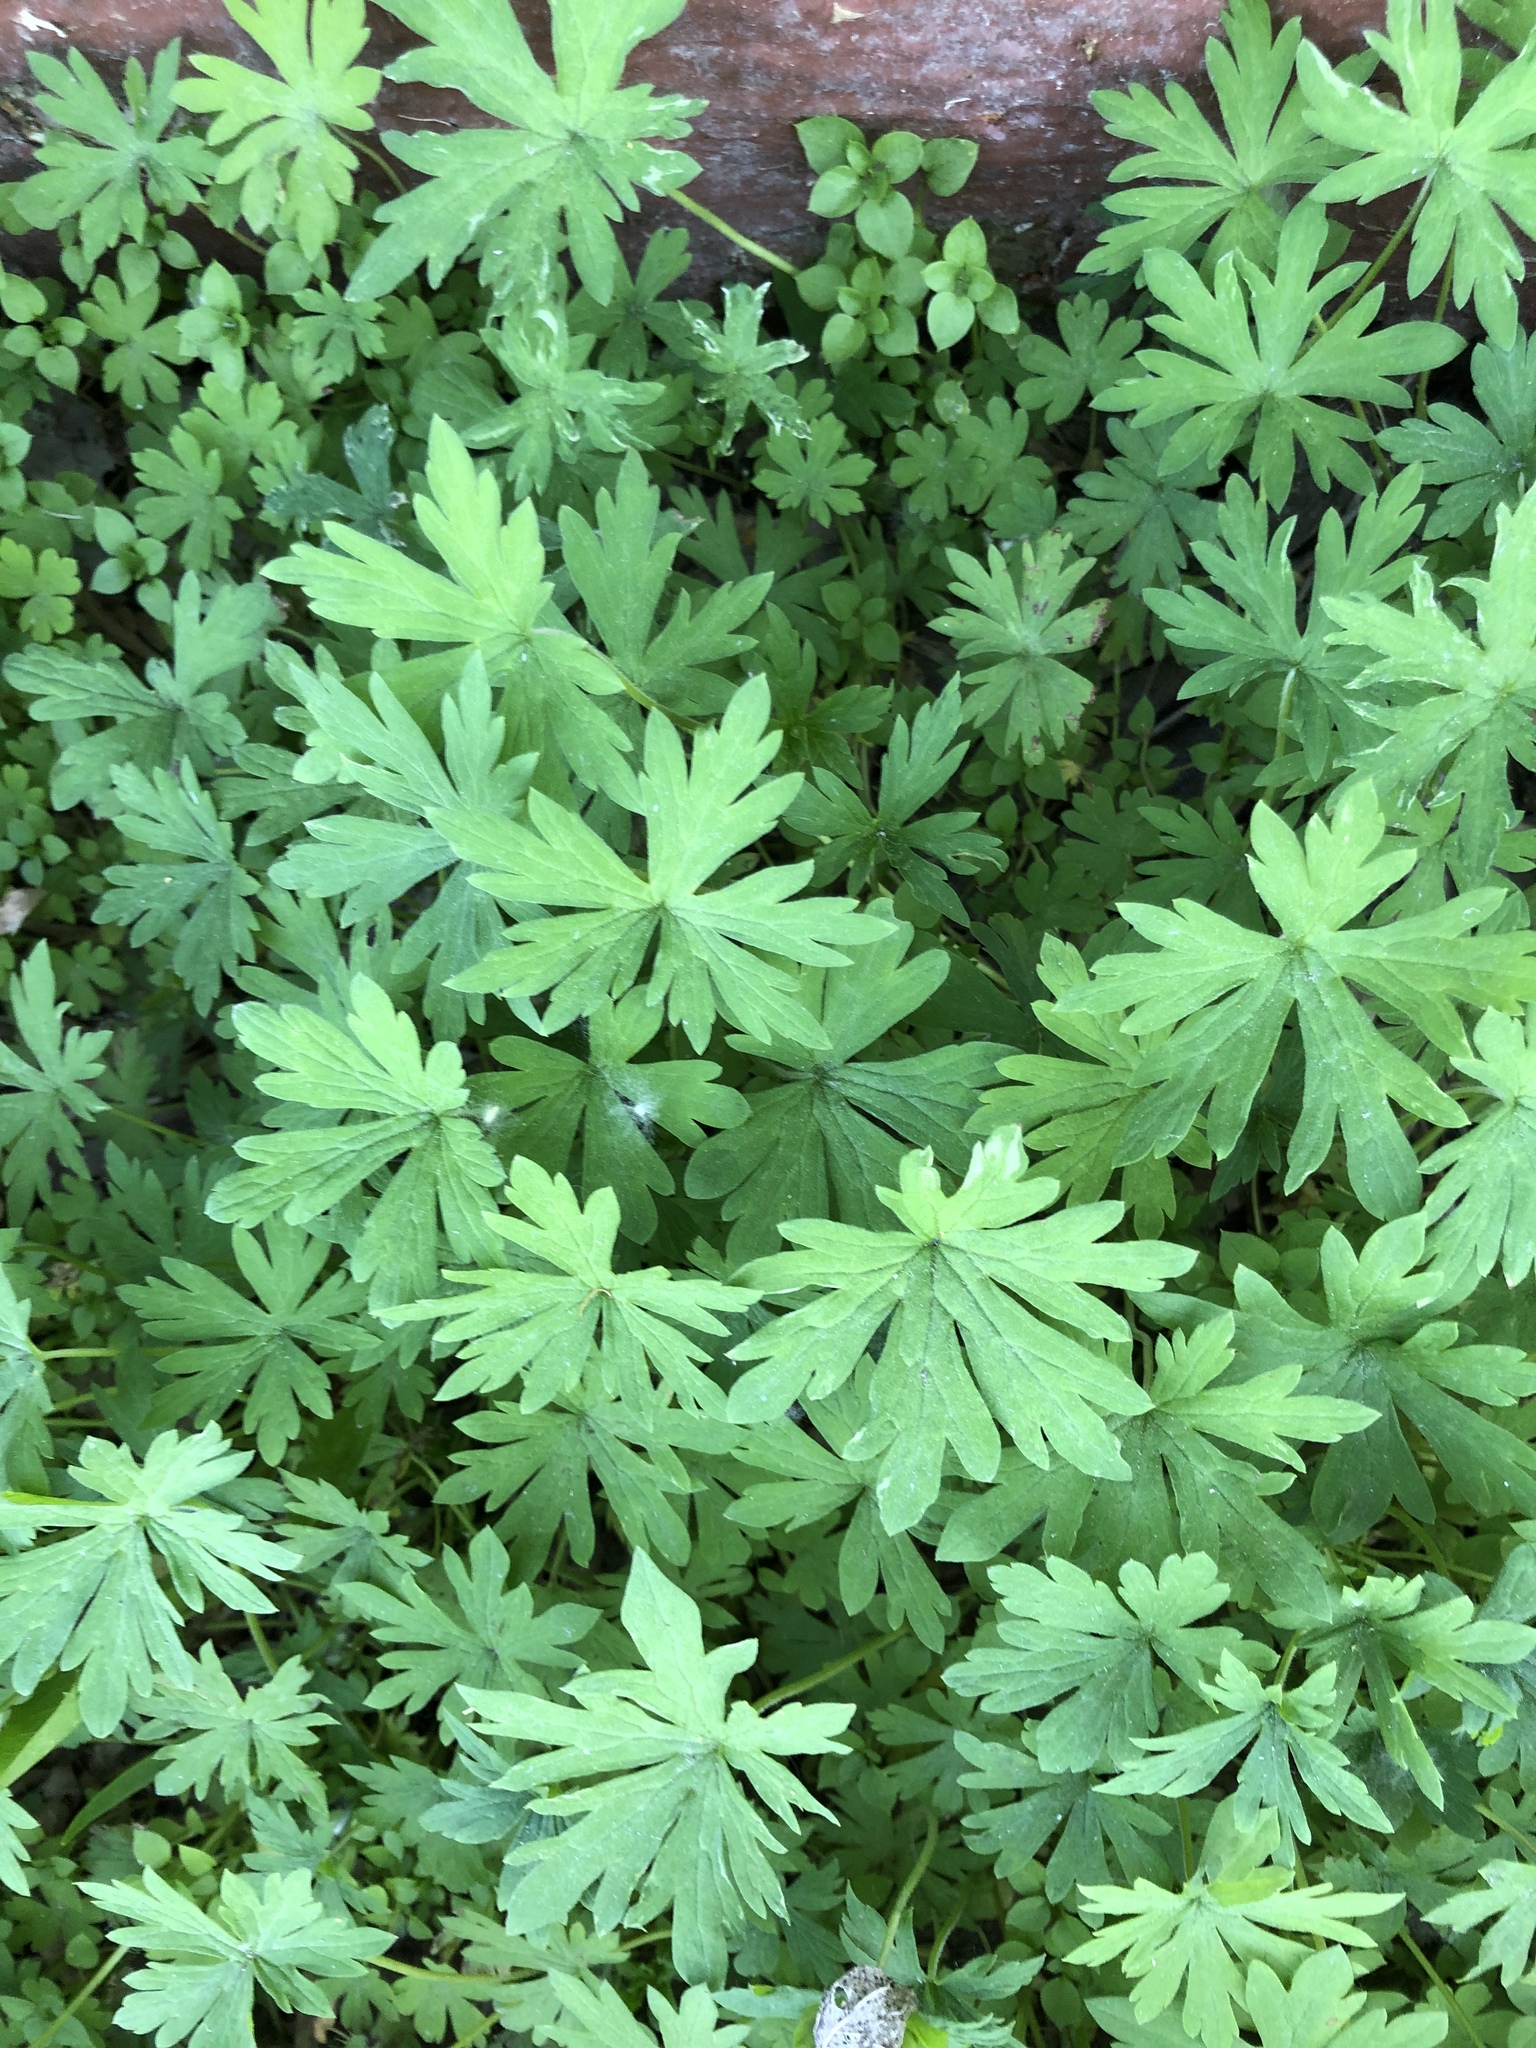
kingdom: Plantae
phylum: Tracheophyta
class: Magnoliopsida
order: Geraniales
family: Geraniaceae
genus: Geranium
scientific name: Geranium sibiricum
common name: Siberian crane's-bill
